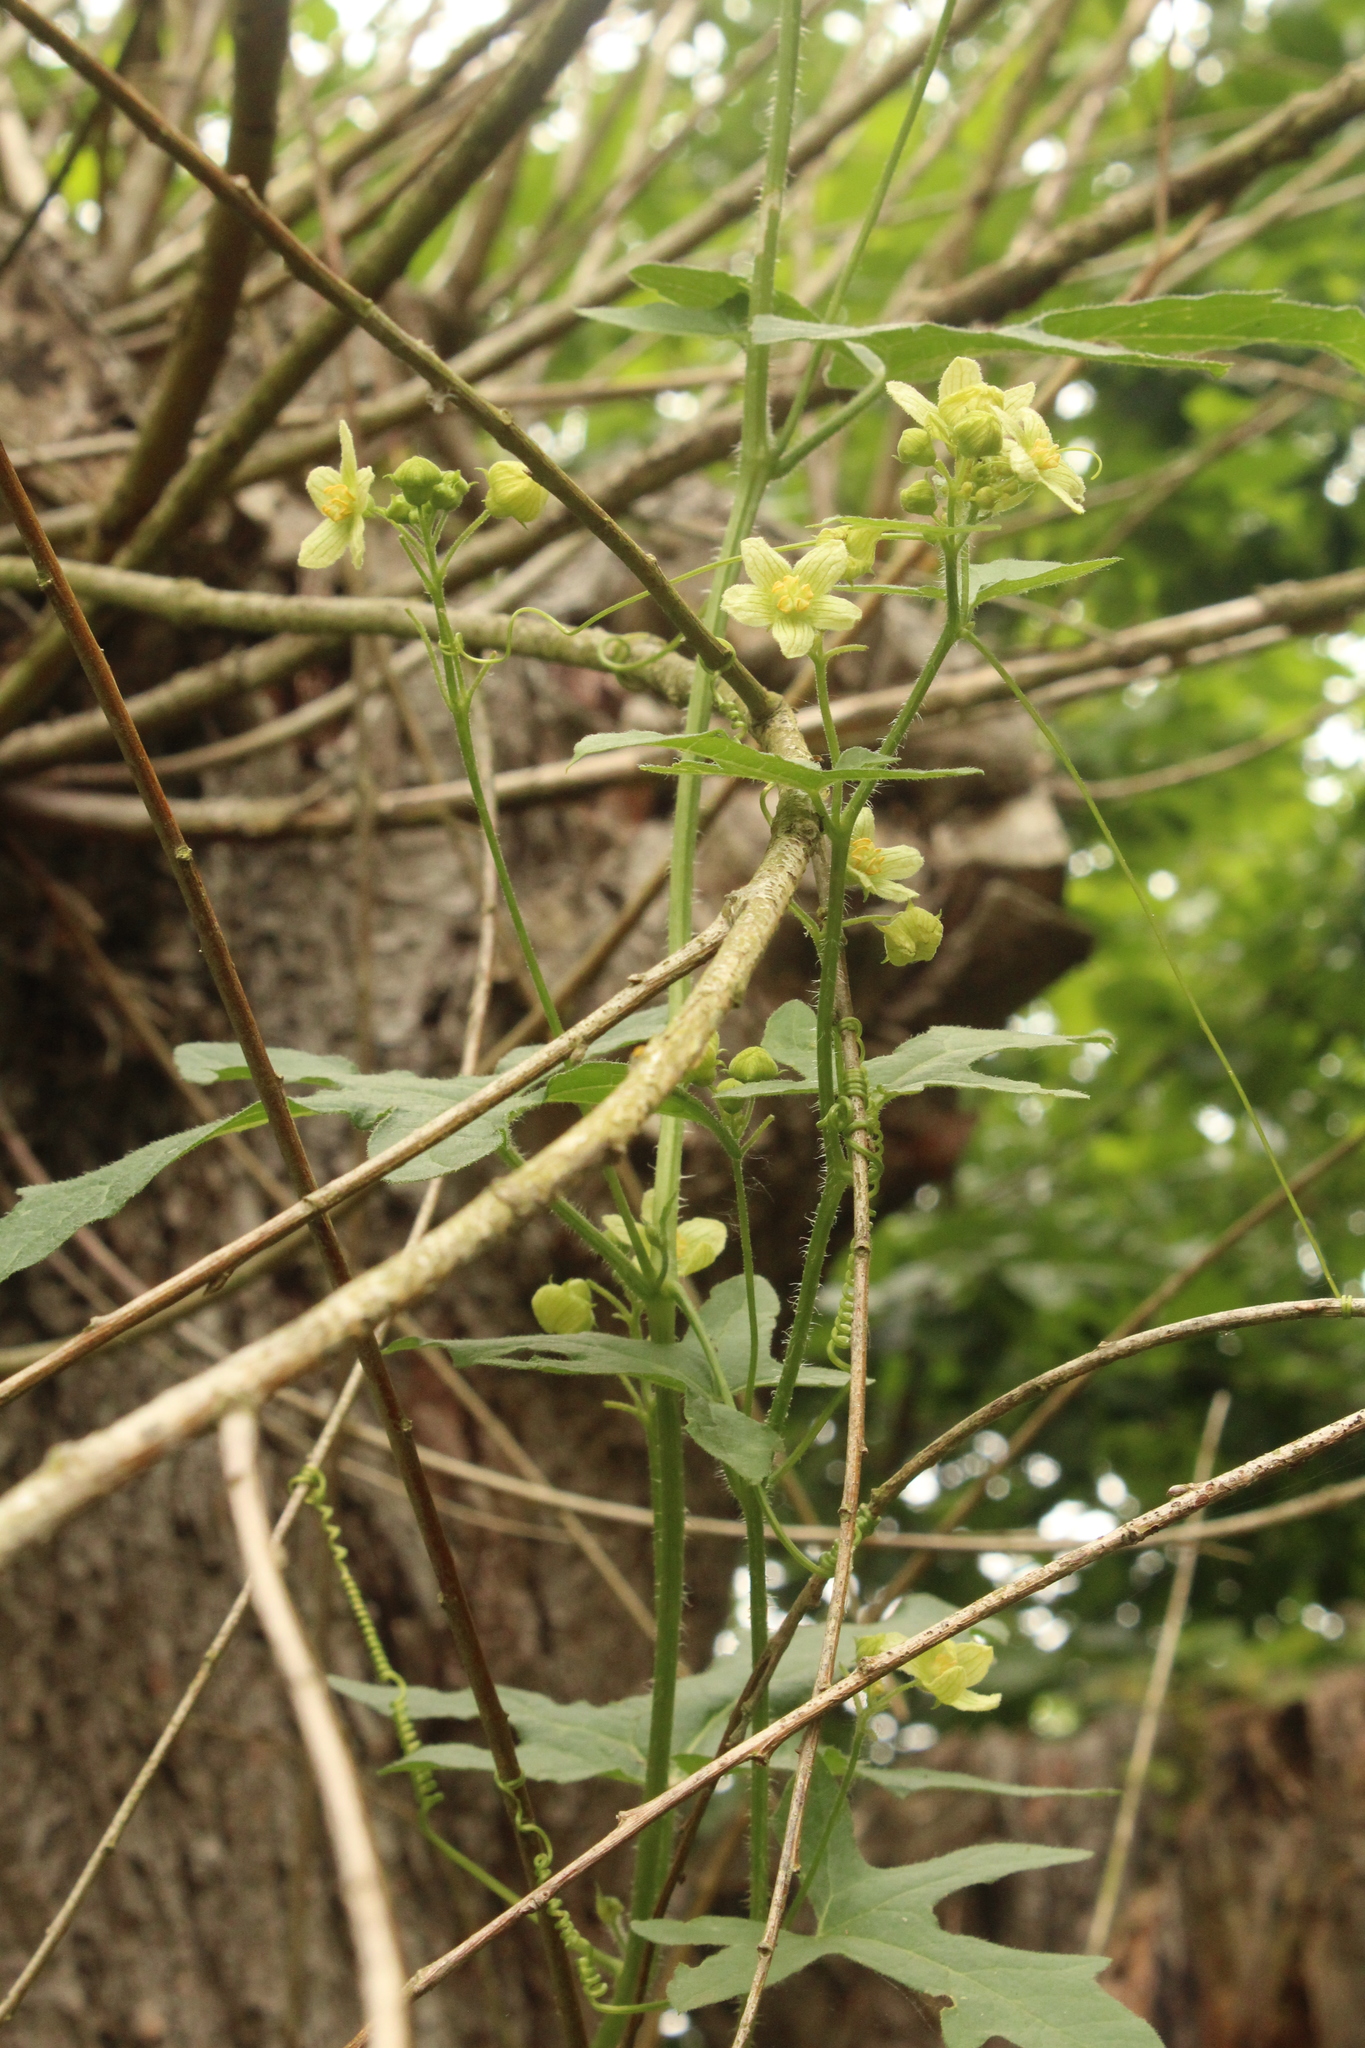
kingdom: Plantae
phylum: Tracheophyta
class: Magnoliopsida
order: Cucurbitales
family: Cucurbitaceae
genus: Bryonia
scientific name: Bryonia cretica
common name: Cretan bryony
